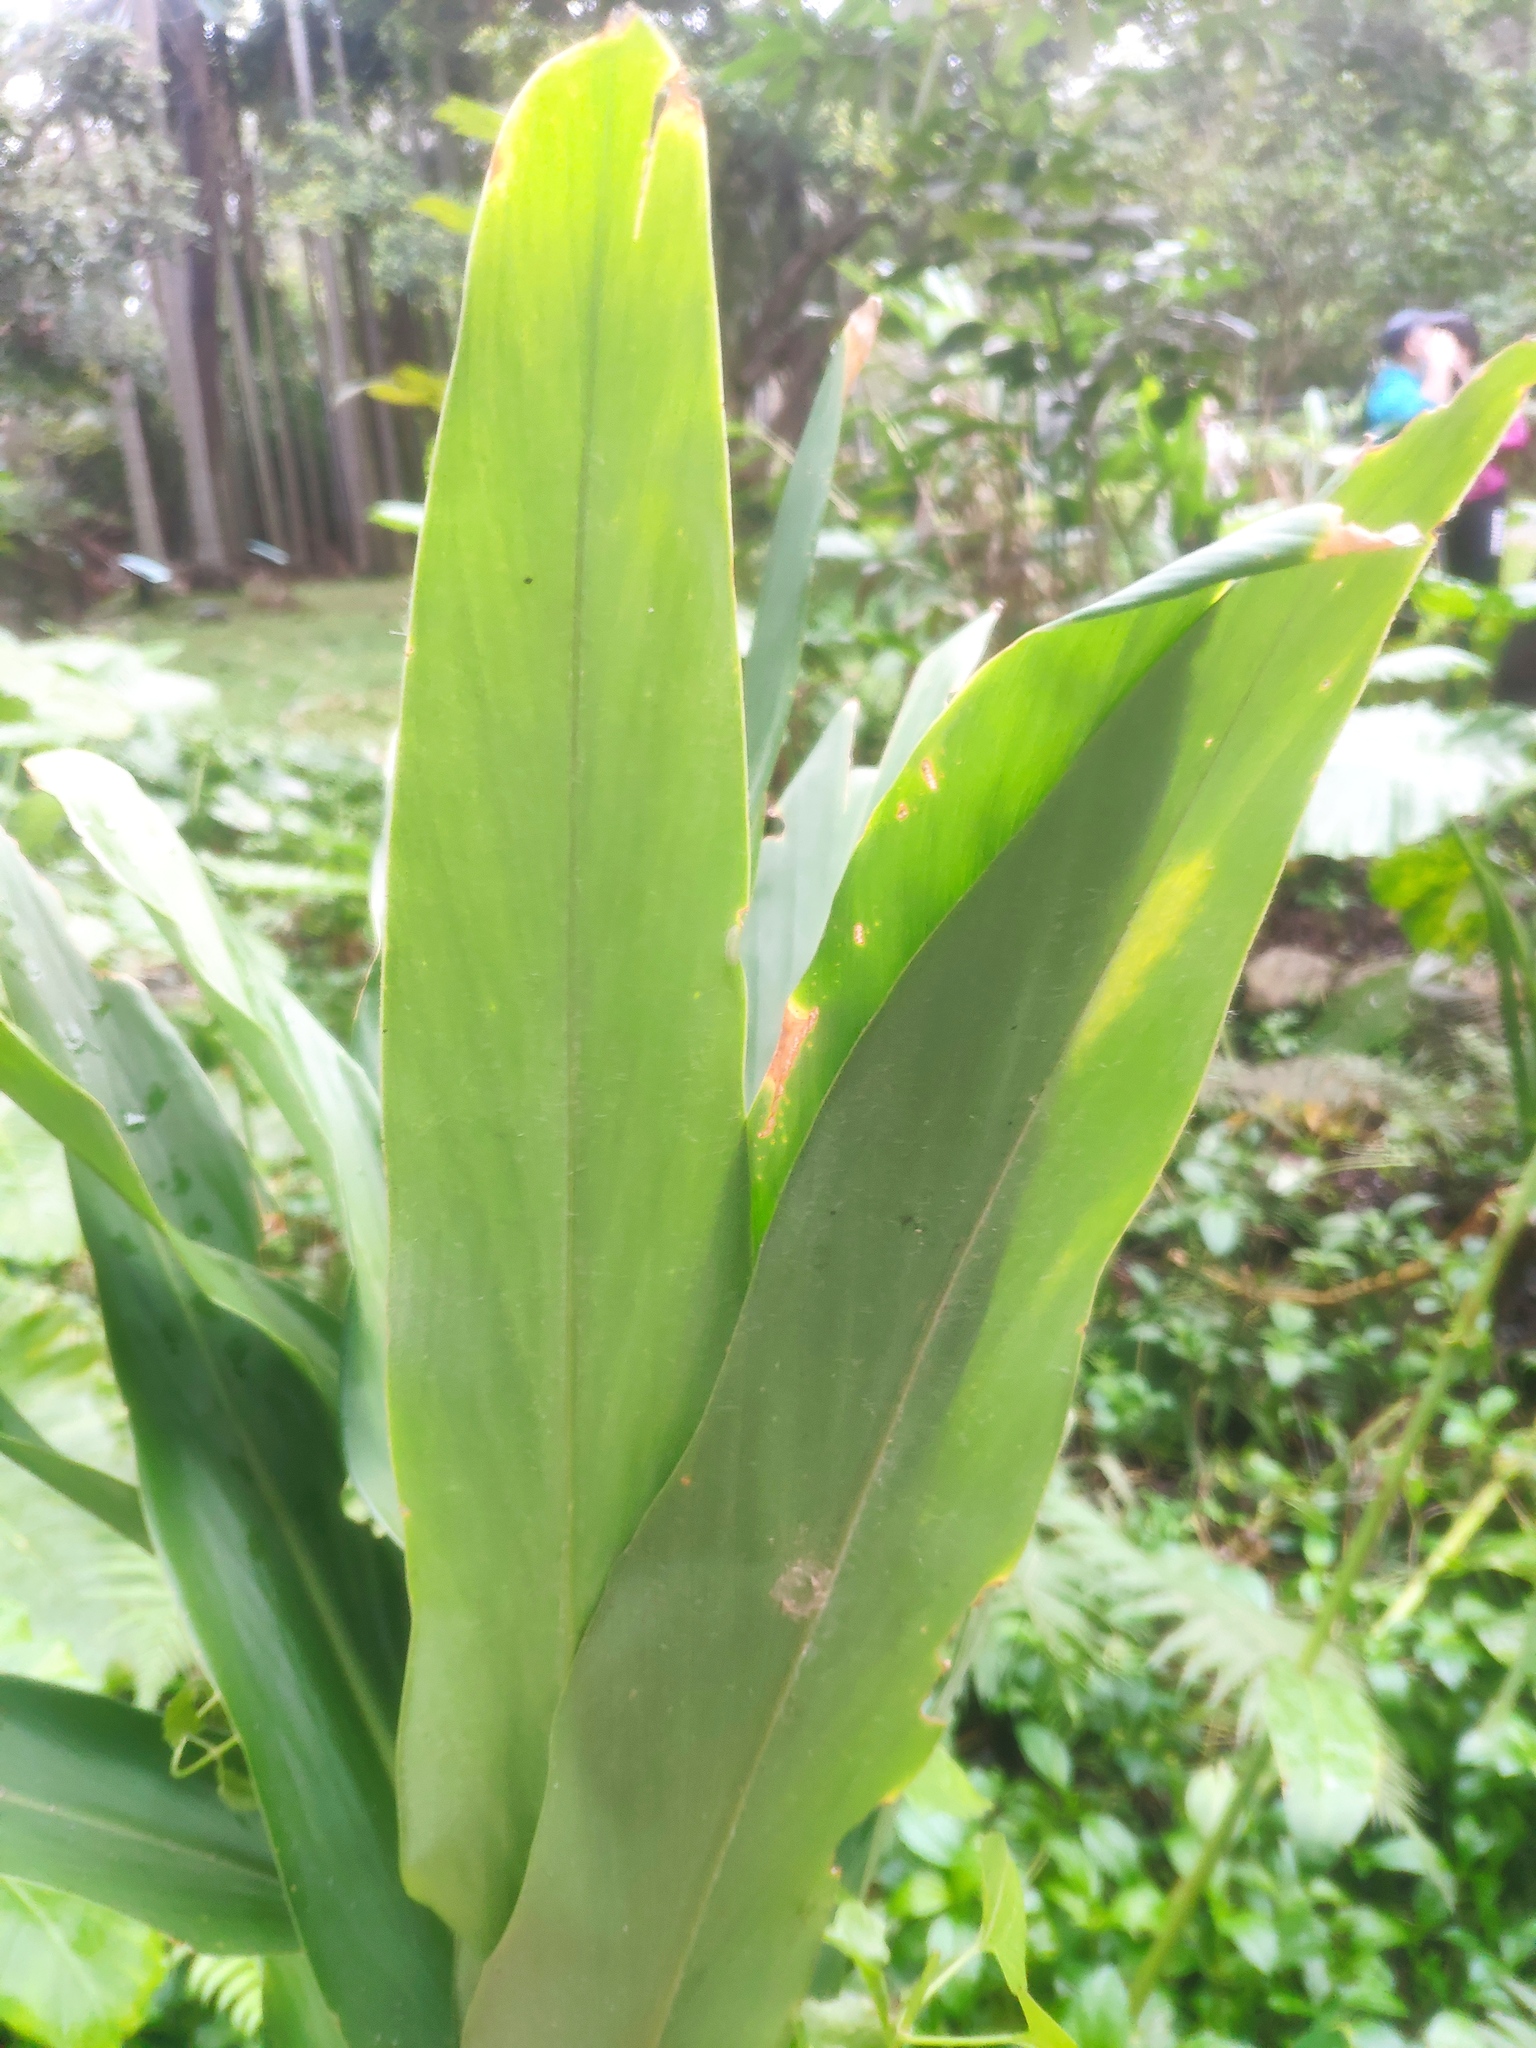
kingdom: Plantae
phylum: Tracheophyta
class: Liliopsida
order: Zingiberales
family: Zingiberaceae
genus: Hedychium
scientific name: Hedychium coronarium
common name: White garland-lily
